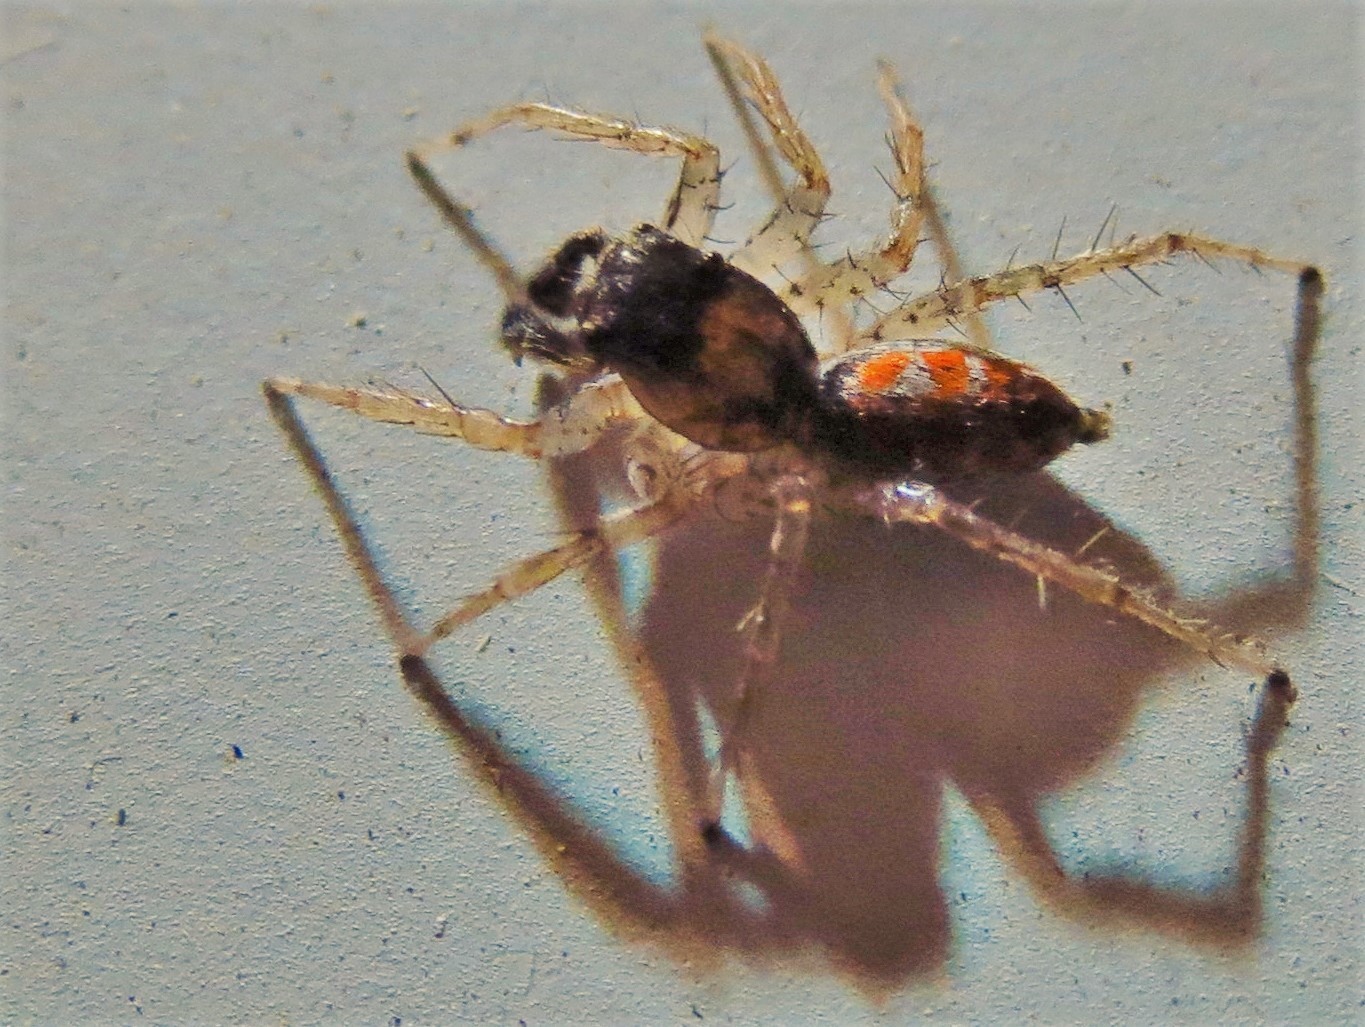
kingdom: Animalia
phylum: Arthropoda
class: Arachnida
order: Araneae
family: Salticidae
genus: Maevia
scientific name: Maevia inclemens
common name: Dimorphic jumper
